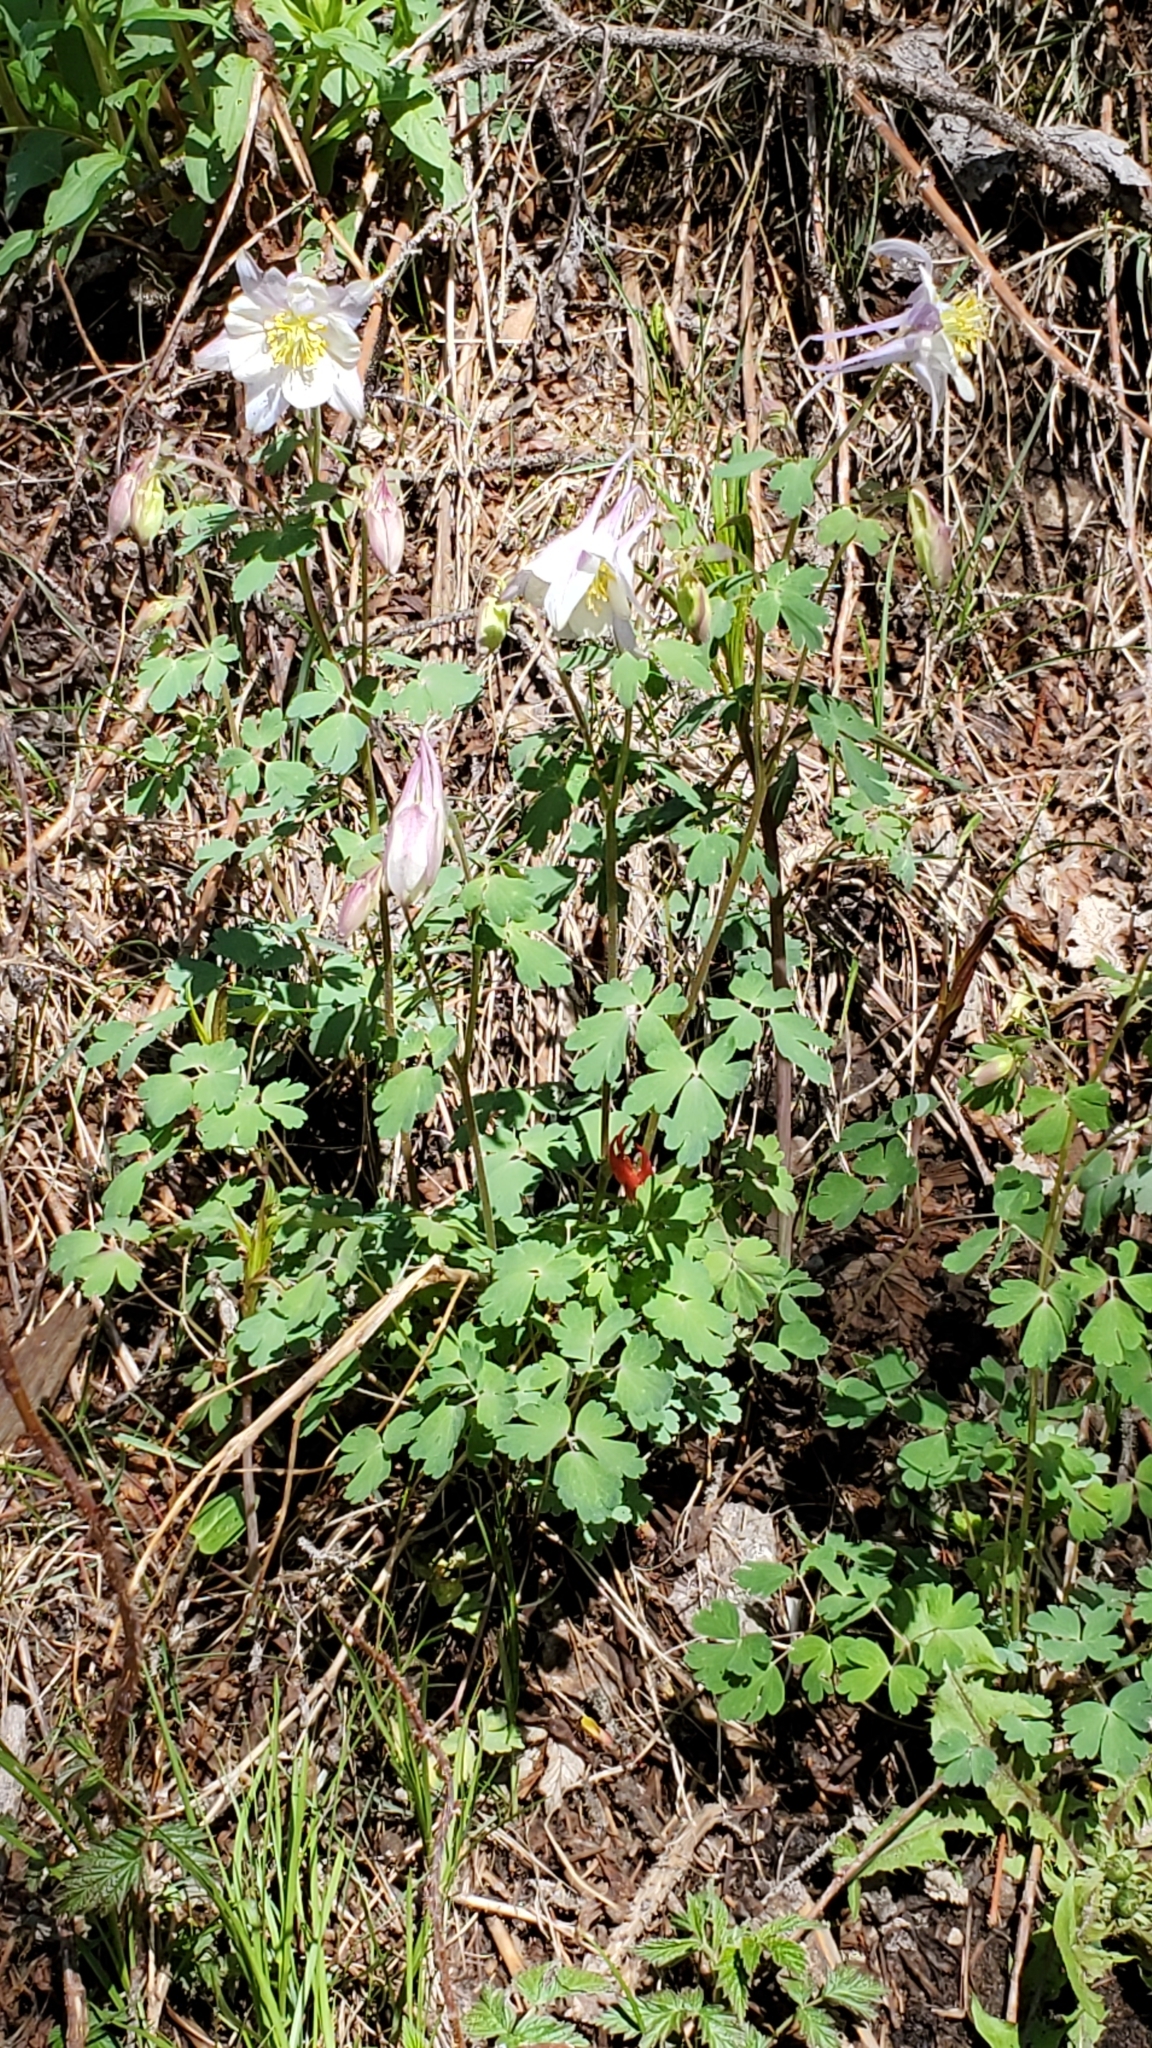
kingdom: Plantae
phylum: Tracheophyta
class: Magnoliopsida
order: Ranunculales
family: Ranunculaceae
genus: Aquilegia
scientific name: Aquilegia coerulea
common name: Rocky mountain columbine
